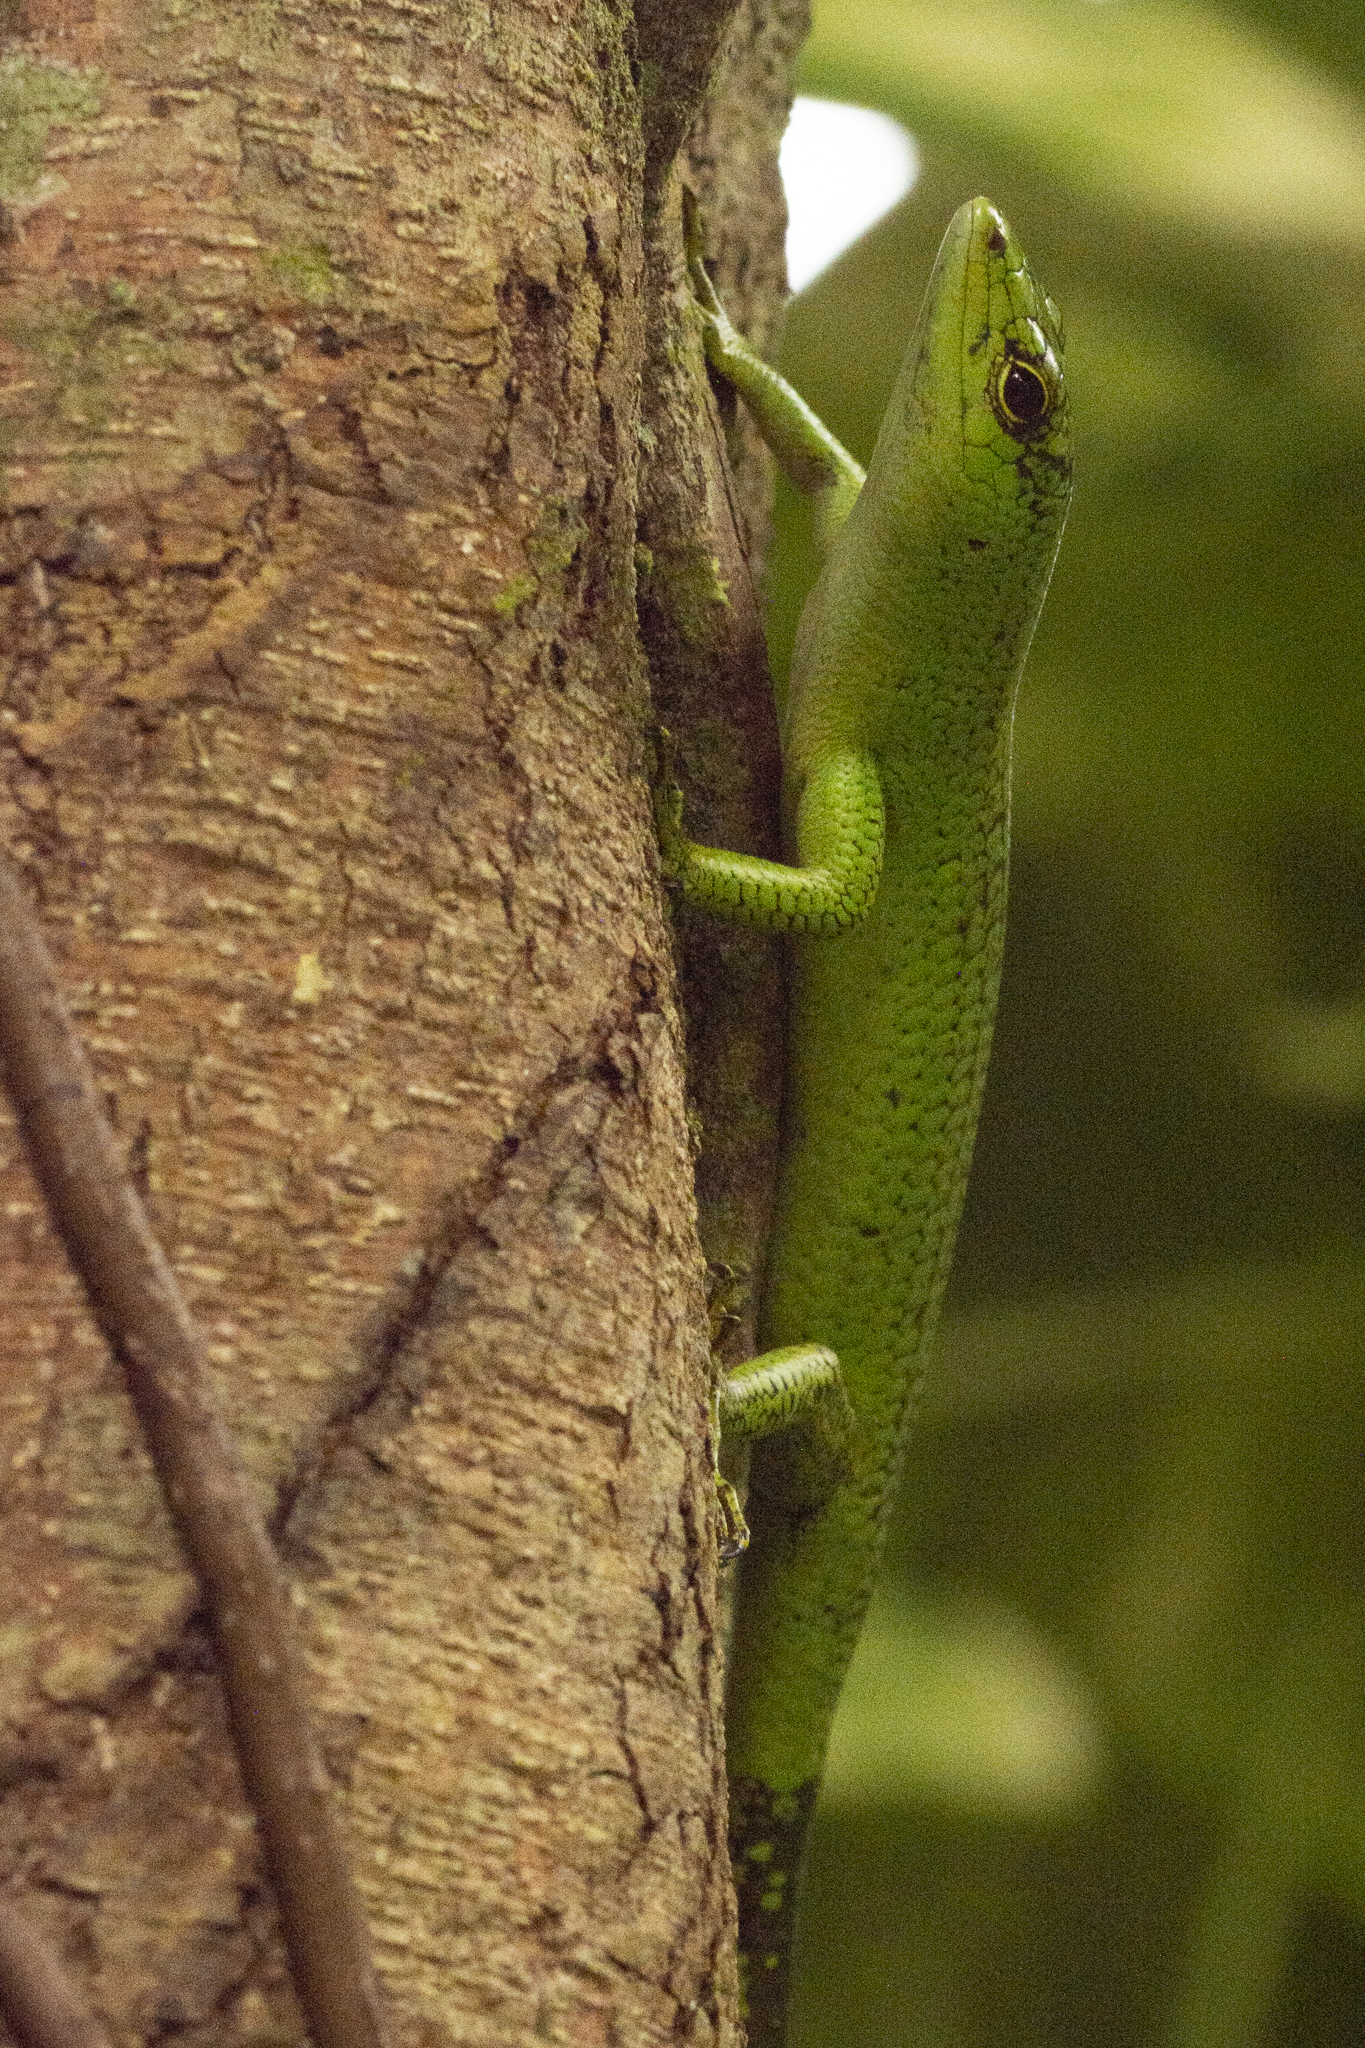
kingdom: Animalia
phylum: Chordata
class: Squamata
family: Scincidae
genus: Lamprolepis
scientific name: Lamprolepis smaragdina
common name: Emerald skink
